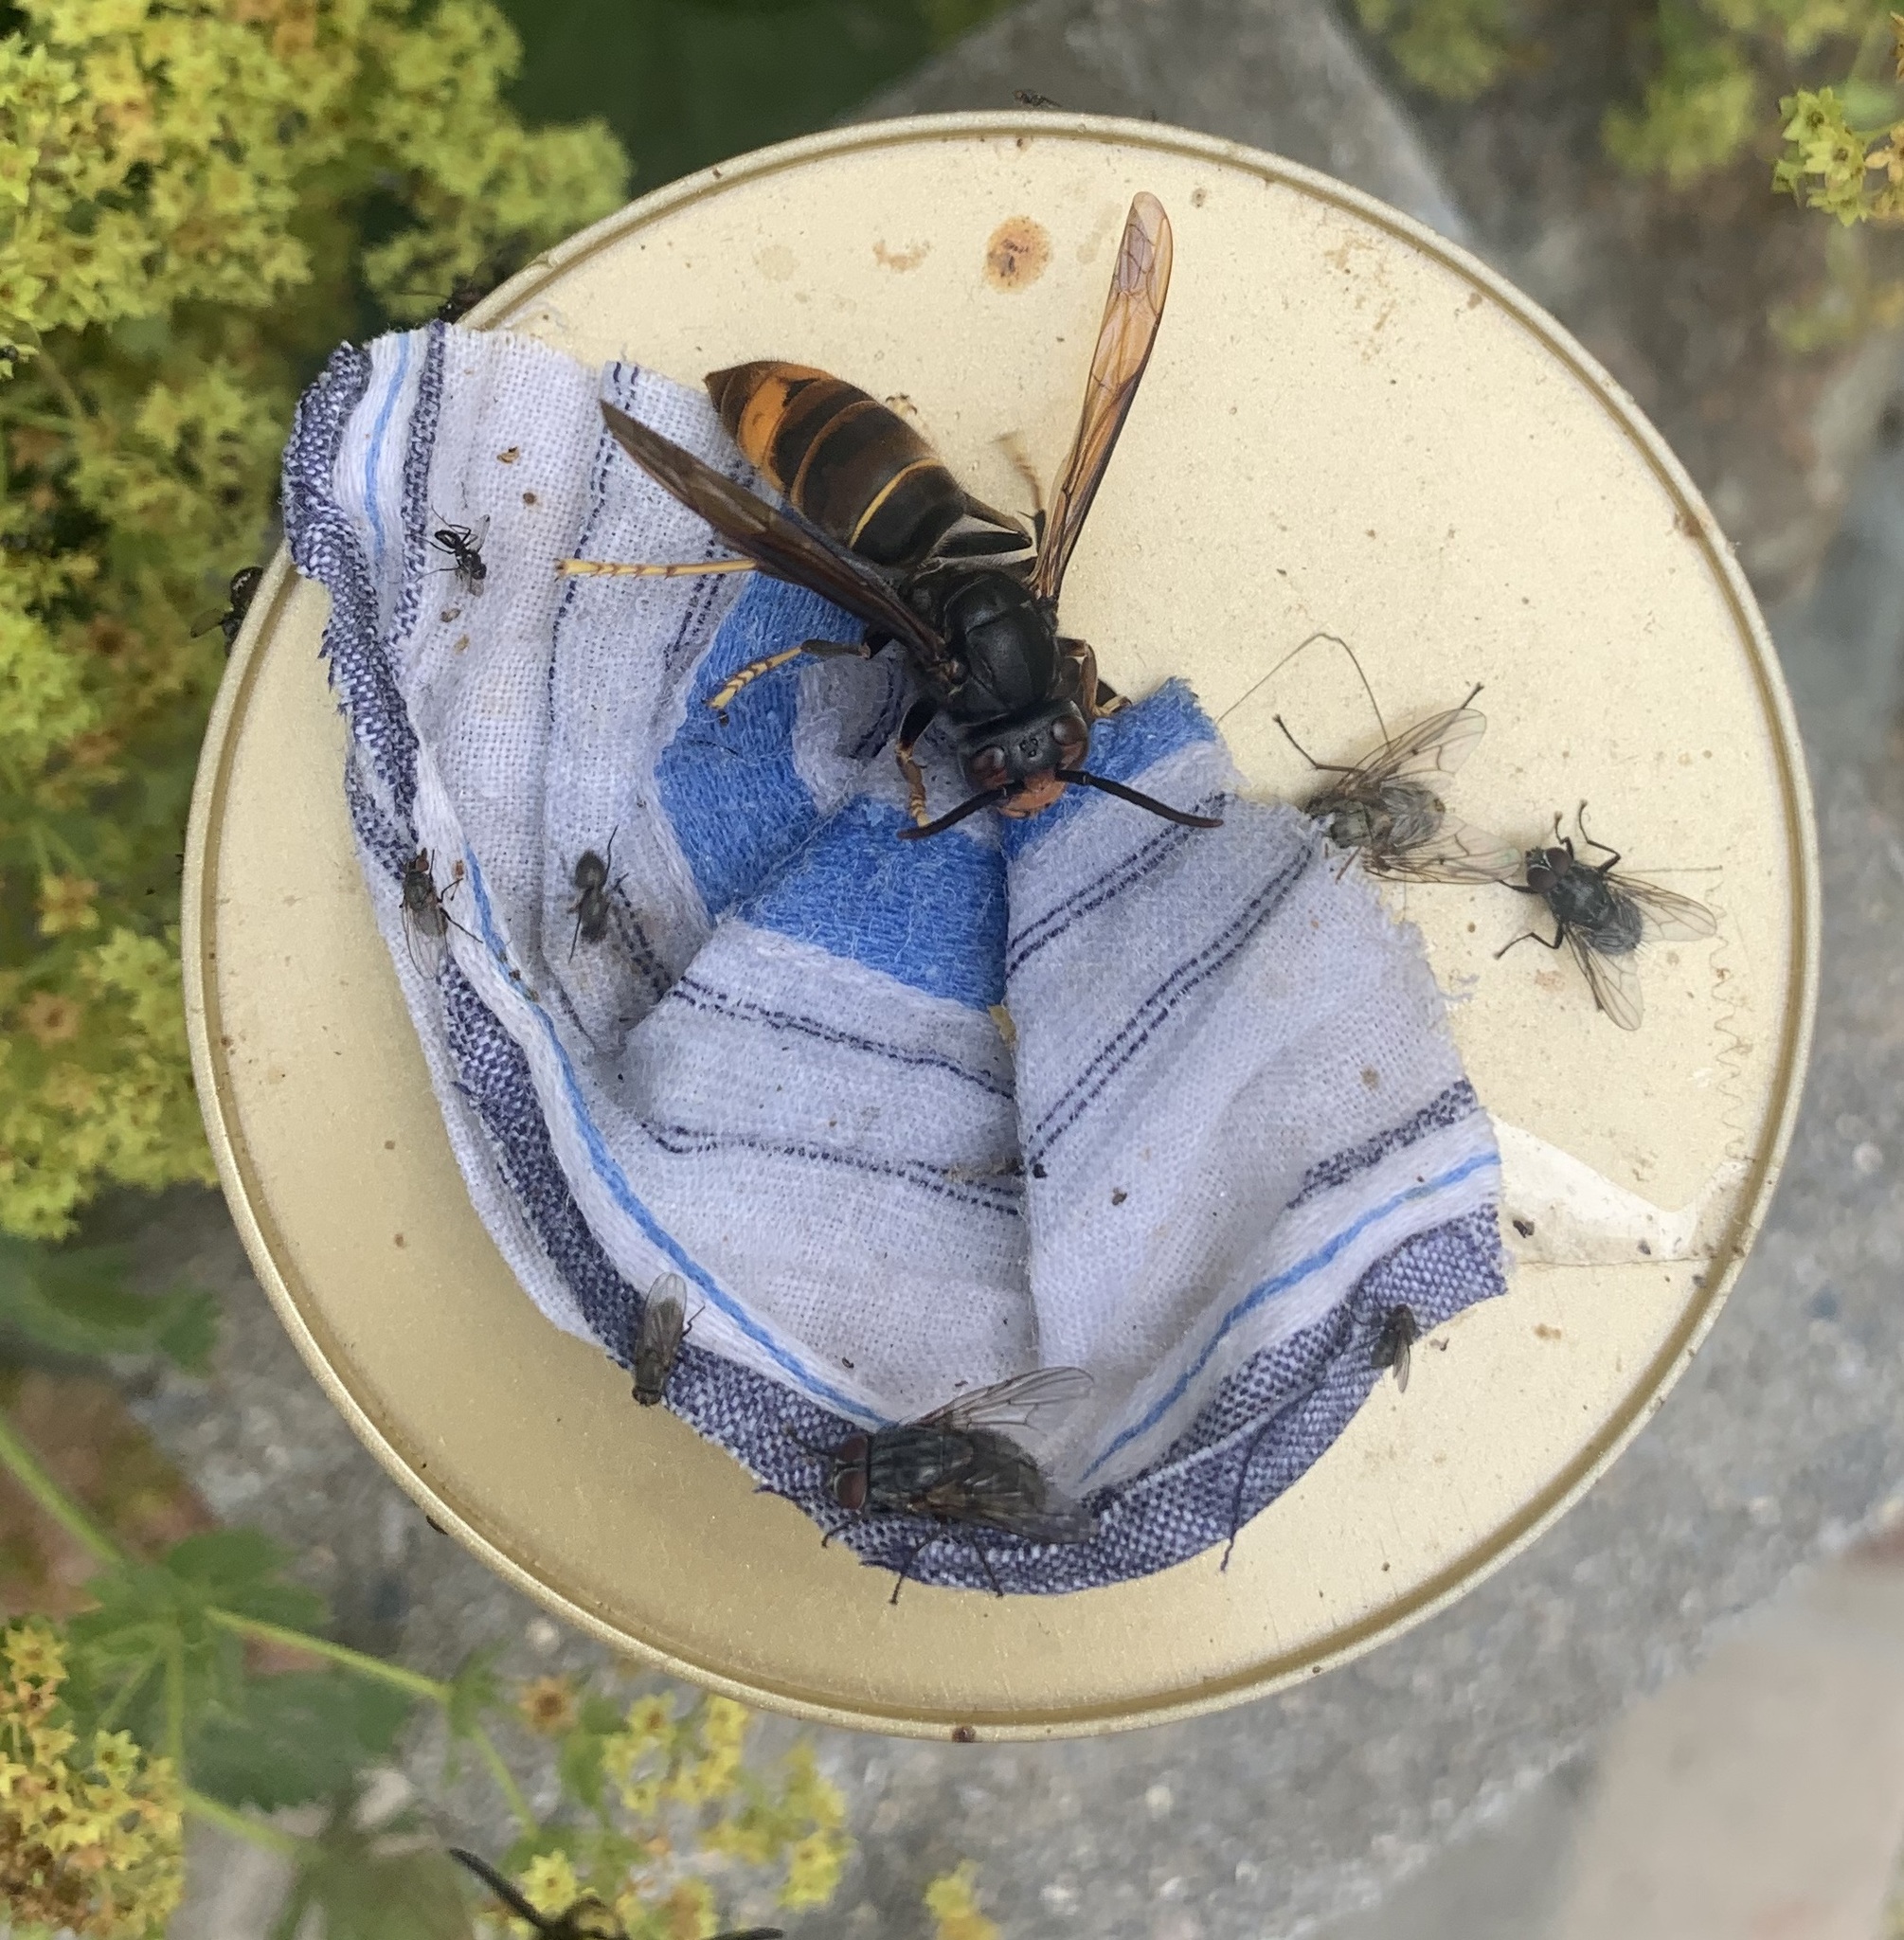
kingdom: Animalia
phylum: Arthropoda
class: Insecta
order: Hymenoptera
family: Vespidae
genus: Vespa
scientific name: Vespa velutina
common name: Asian hornet
